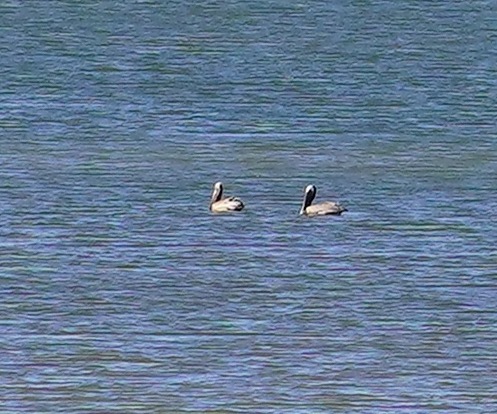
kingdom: Animalia
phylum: Chordata
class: Aves
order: Pelecaniformes
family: Pelecanidae
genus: Pelecanus
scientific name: Pelecanus occidentalis
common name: Brown pelican
